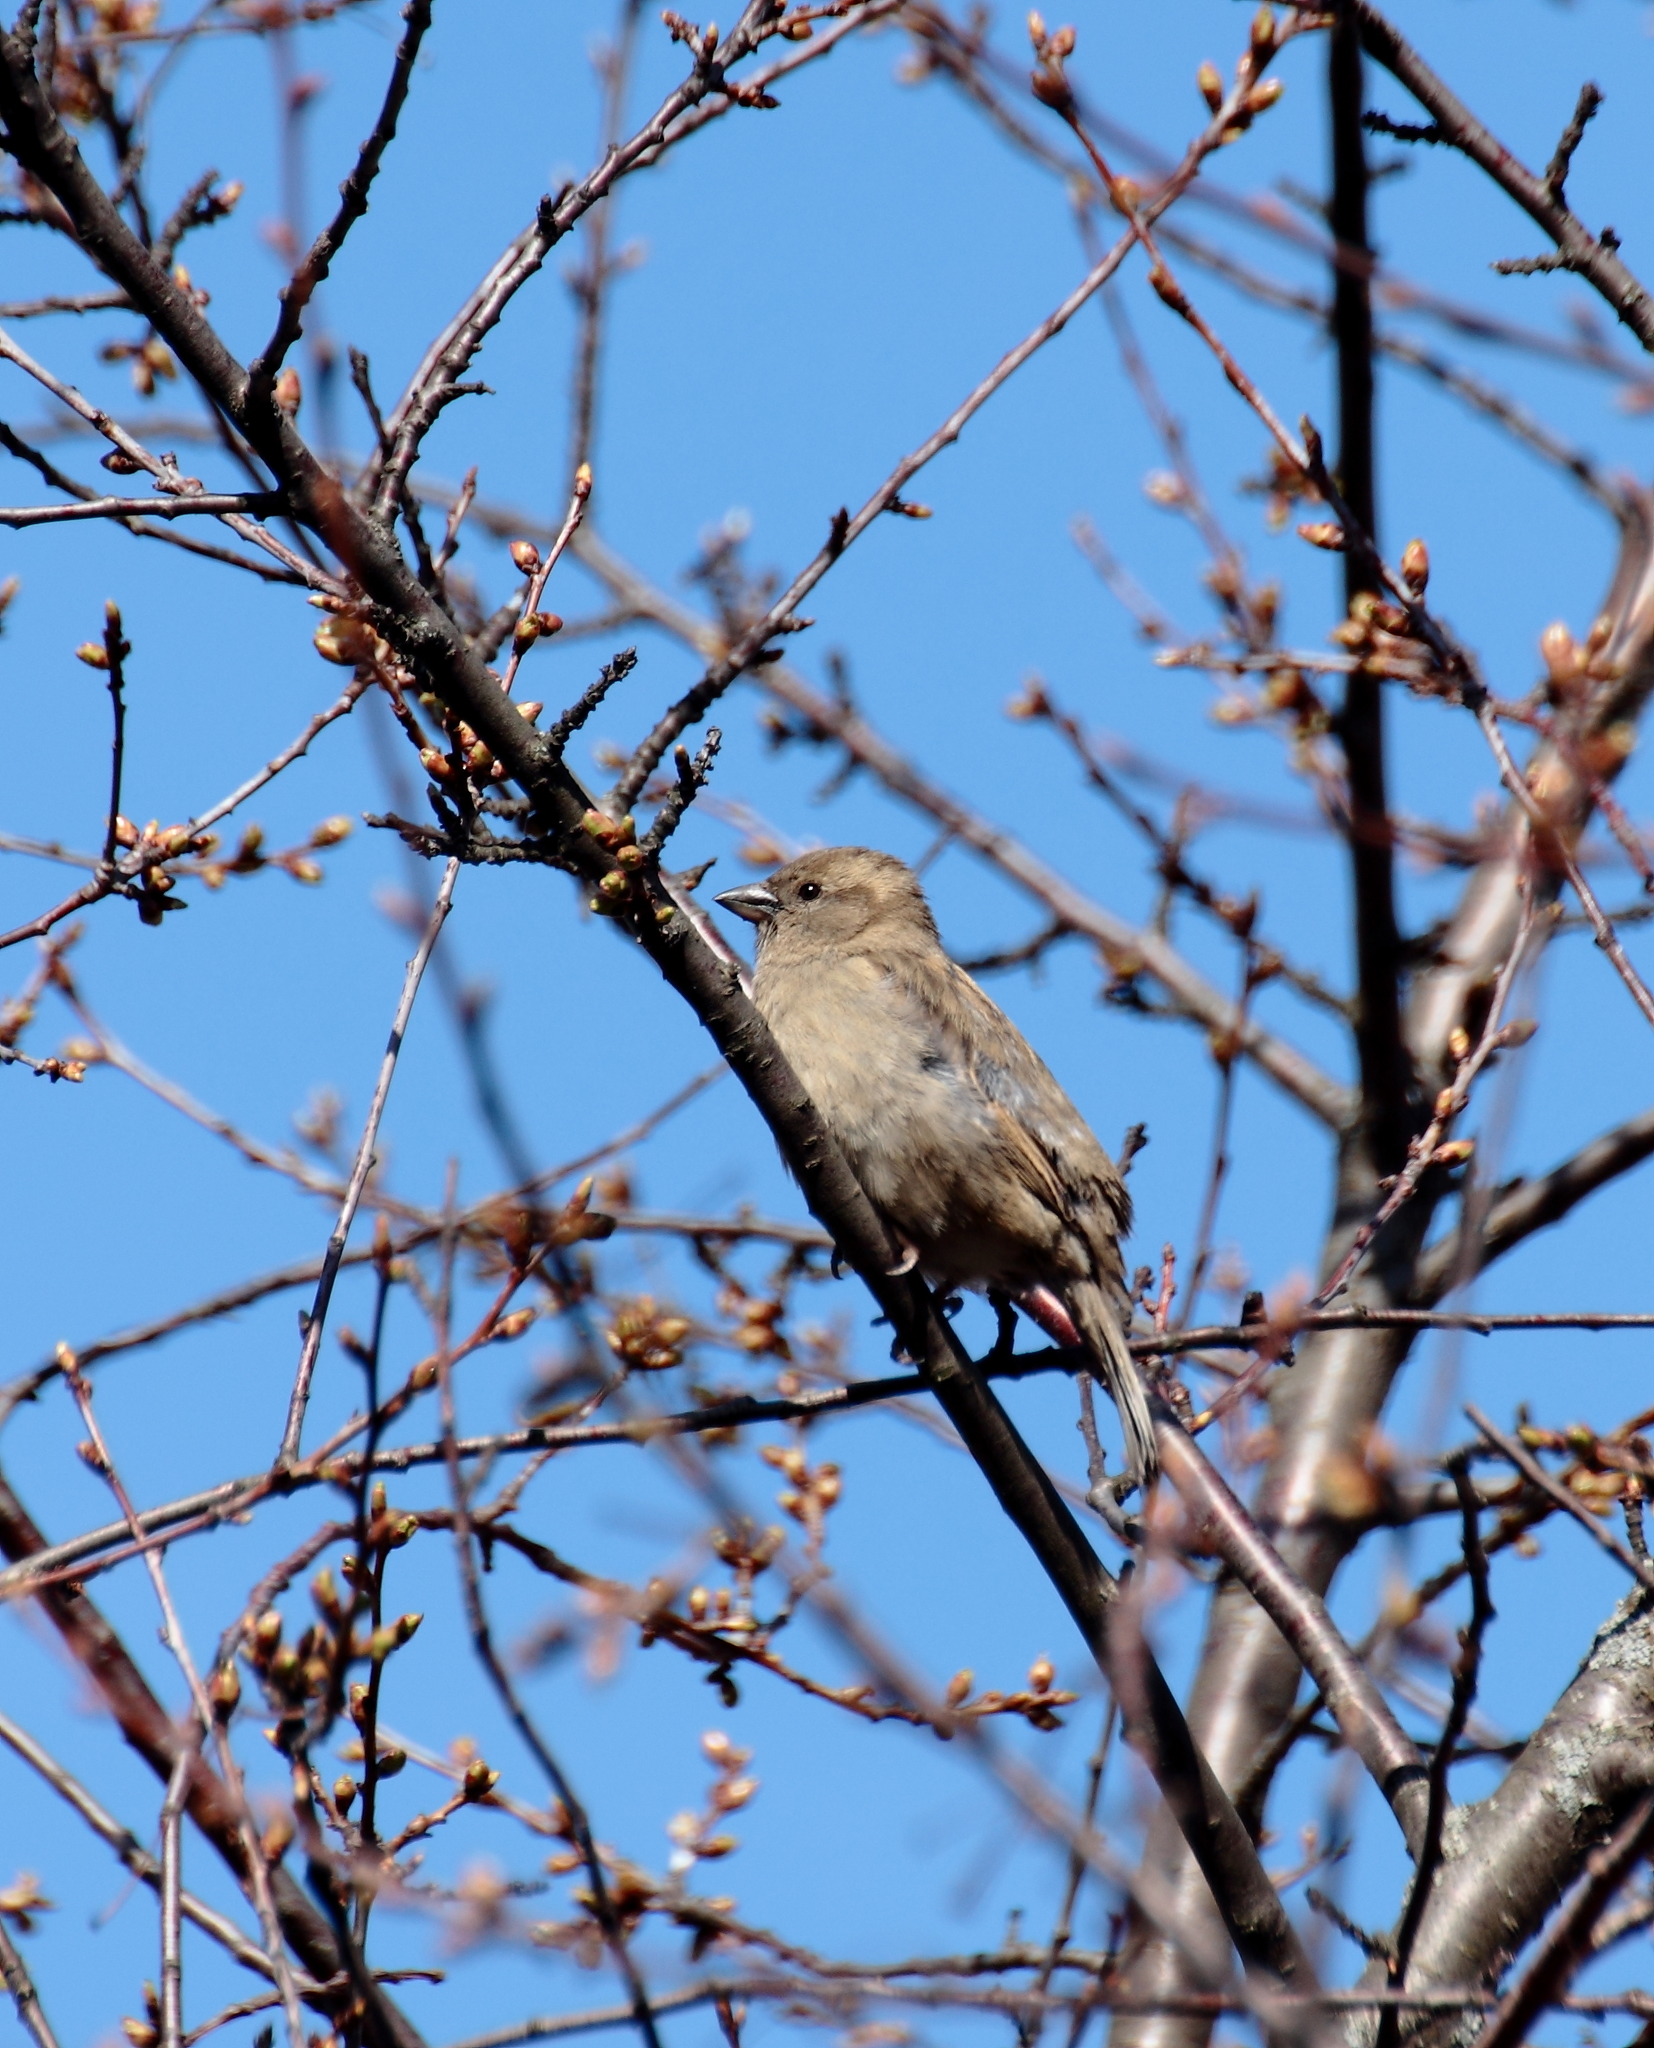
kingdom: Animalia
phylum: Chordata
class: Aves
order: Passeriformes
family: Passeridae
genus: Passer
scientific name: Passer domesticus
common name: House sparrow
